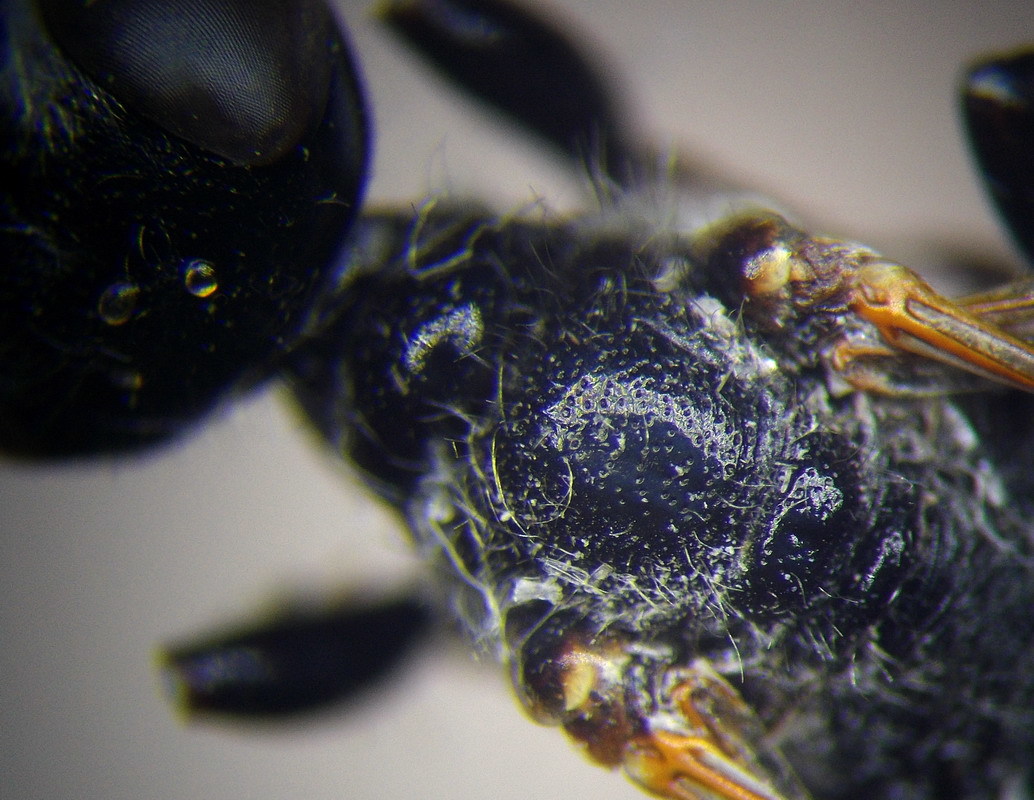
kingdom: Animalia
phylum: Arthropoda
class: Insecta
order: Hymenoptera
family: Sphecidae
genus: Prionyx
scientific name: Prionyx kirbii
